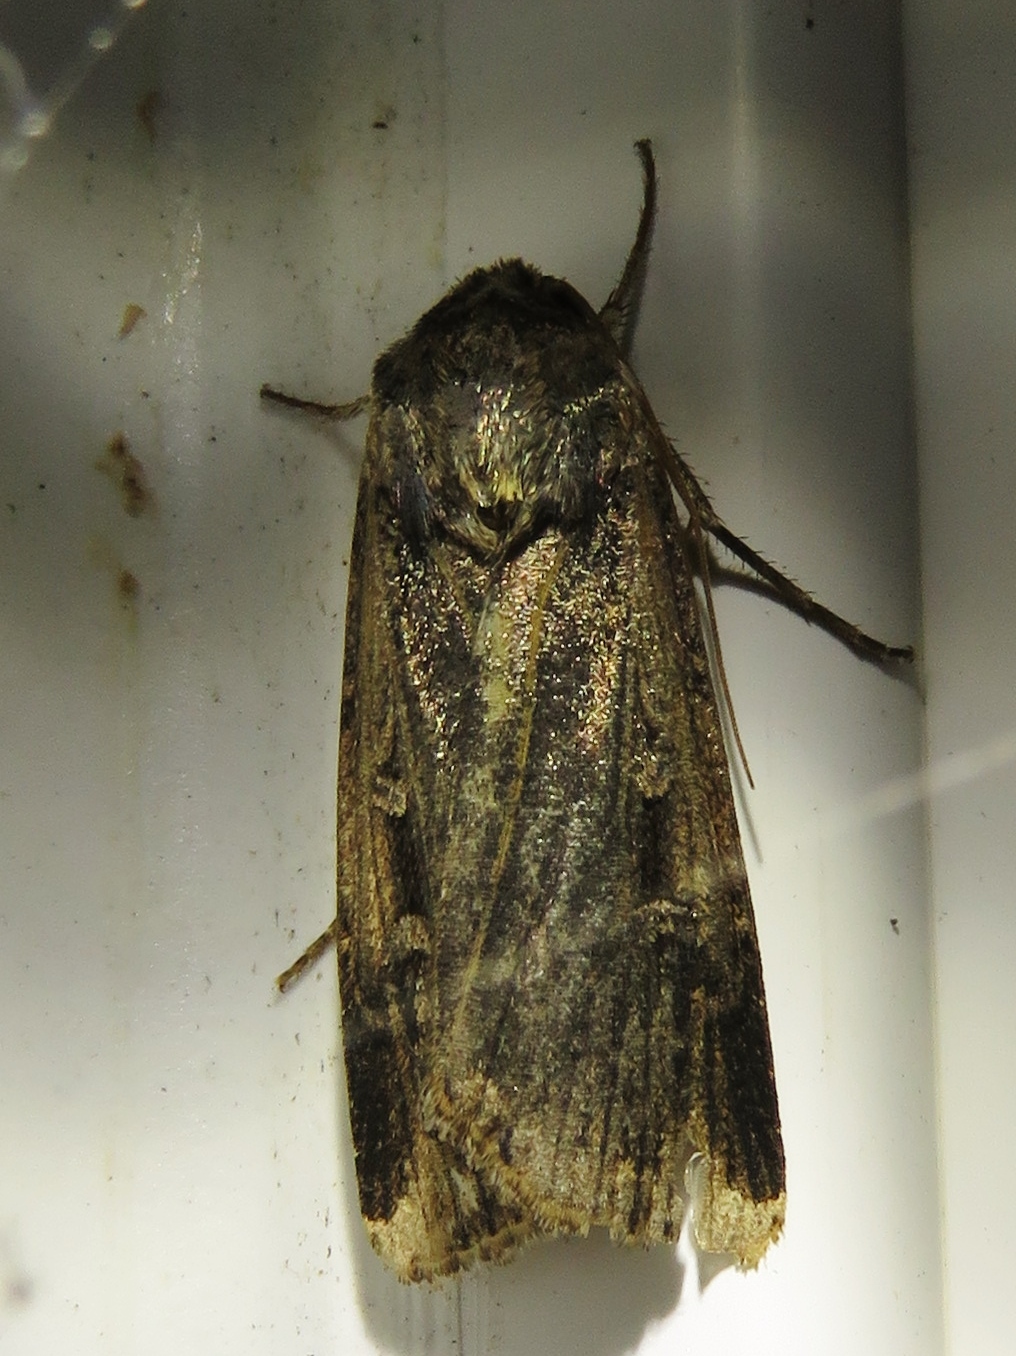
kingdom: Animalia
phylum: Arthropoda
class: Insecta
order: Lepidoptera
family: Noctuidae
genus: Feltia
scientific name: Feltia subterranea
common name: Granulate cutworm
